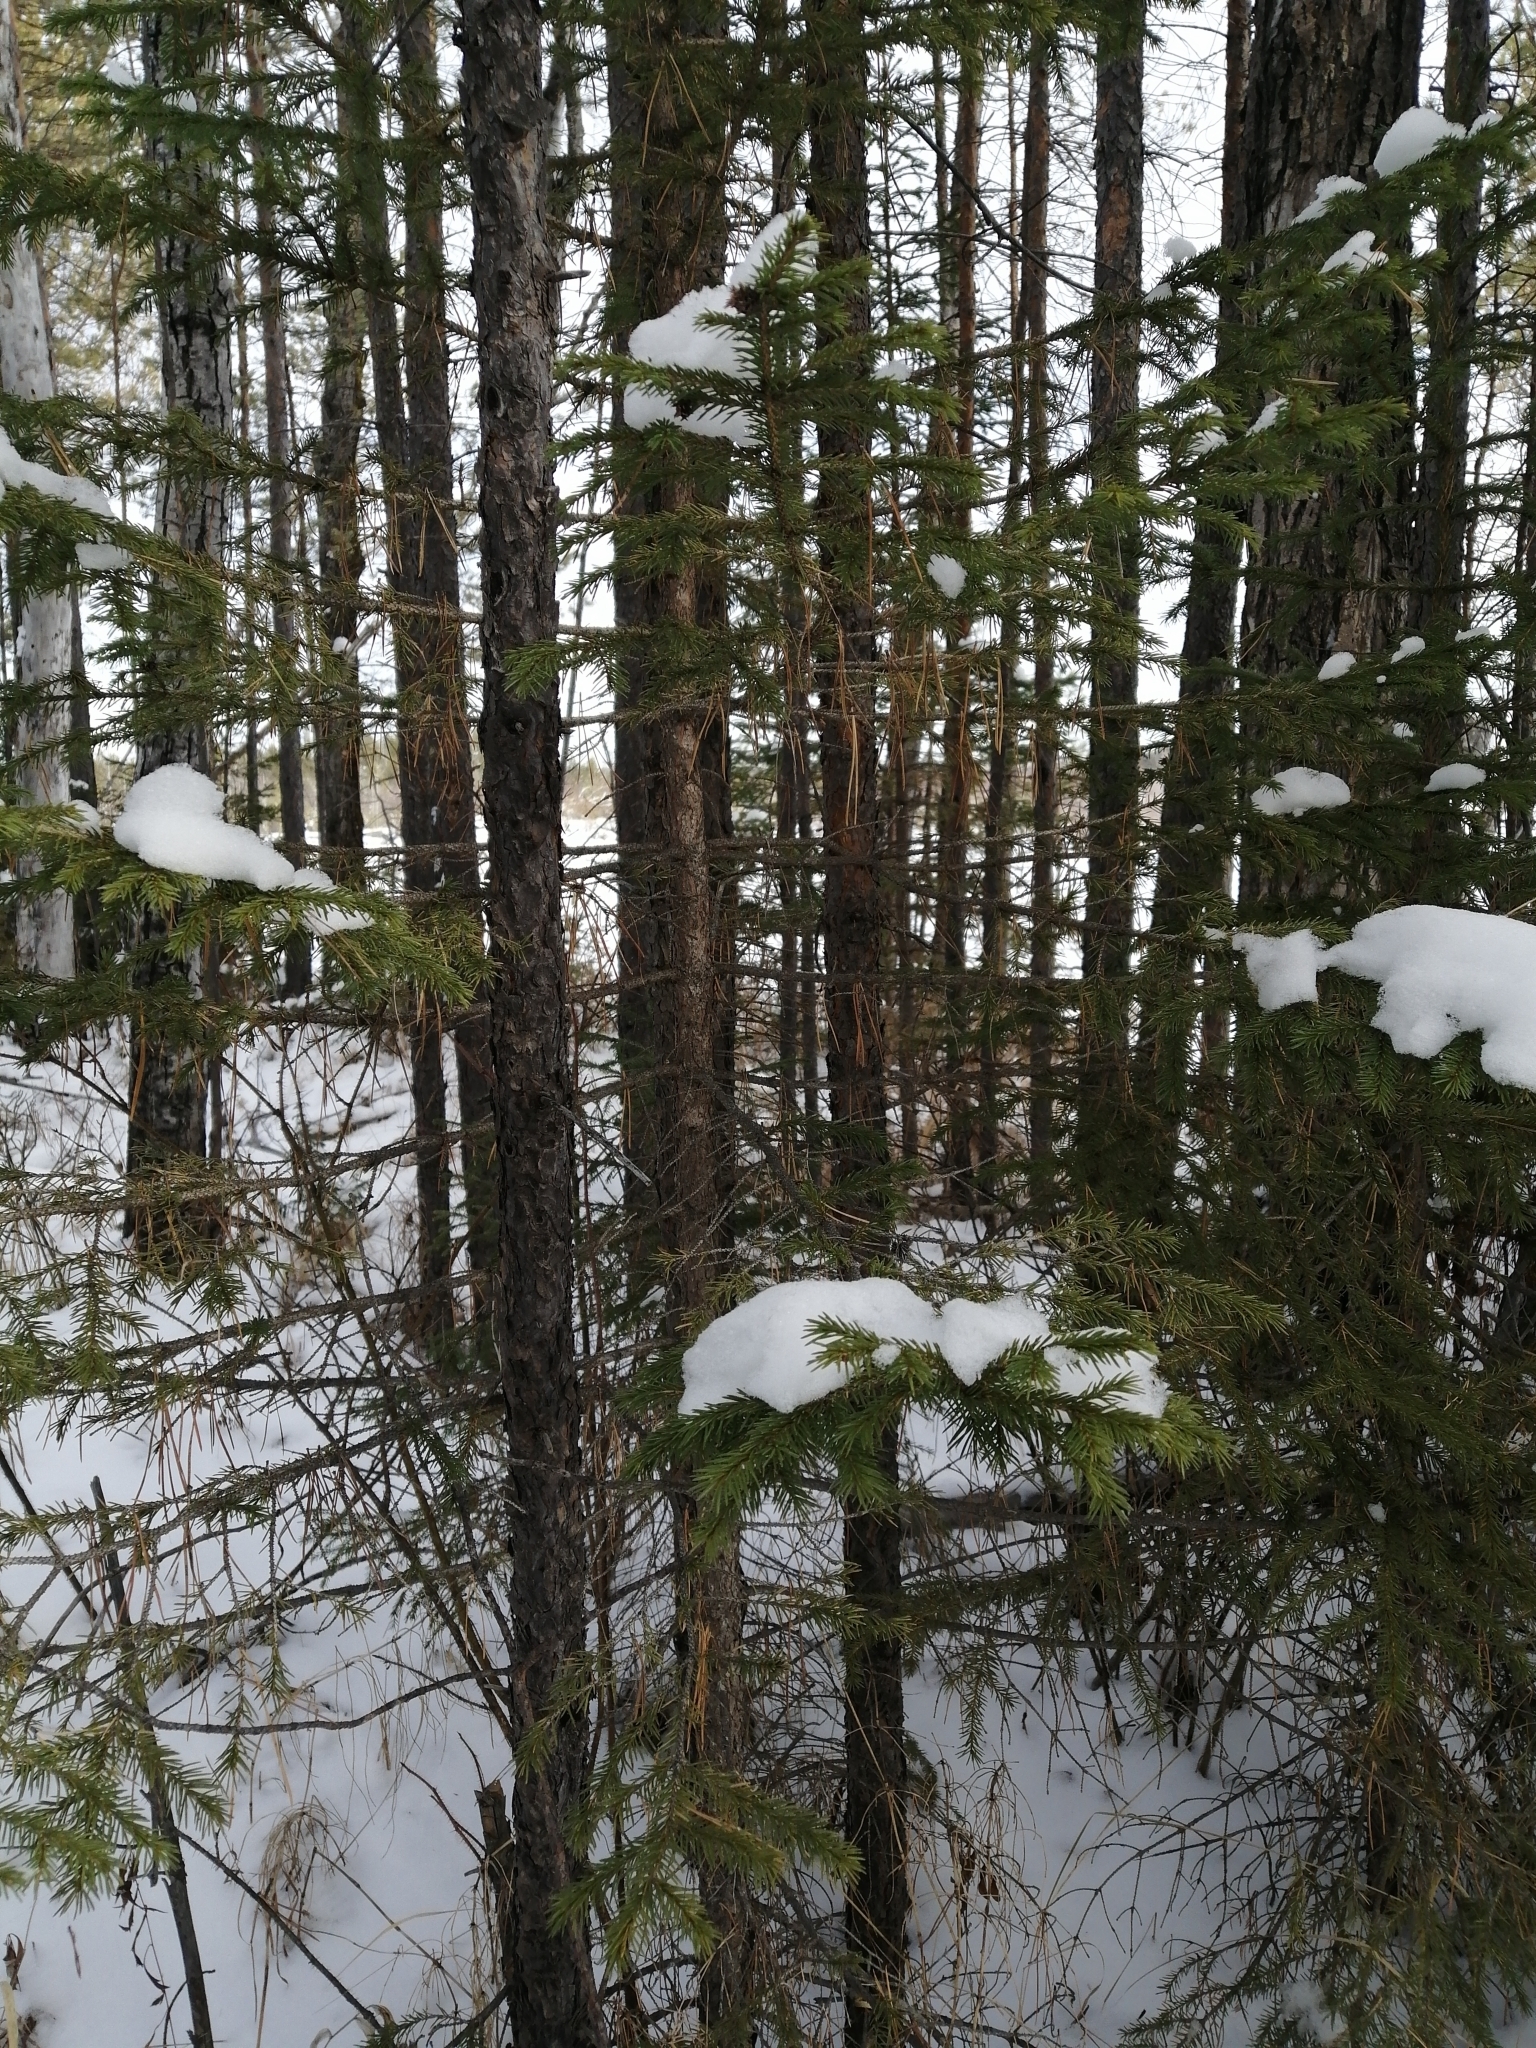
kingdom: Plantae
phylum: Tracheophyta
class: Pinopsida
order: Pinales
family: Pinaceae
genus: Picea
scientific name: Picea obovata
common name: Siberian spruce
